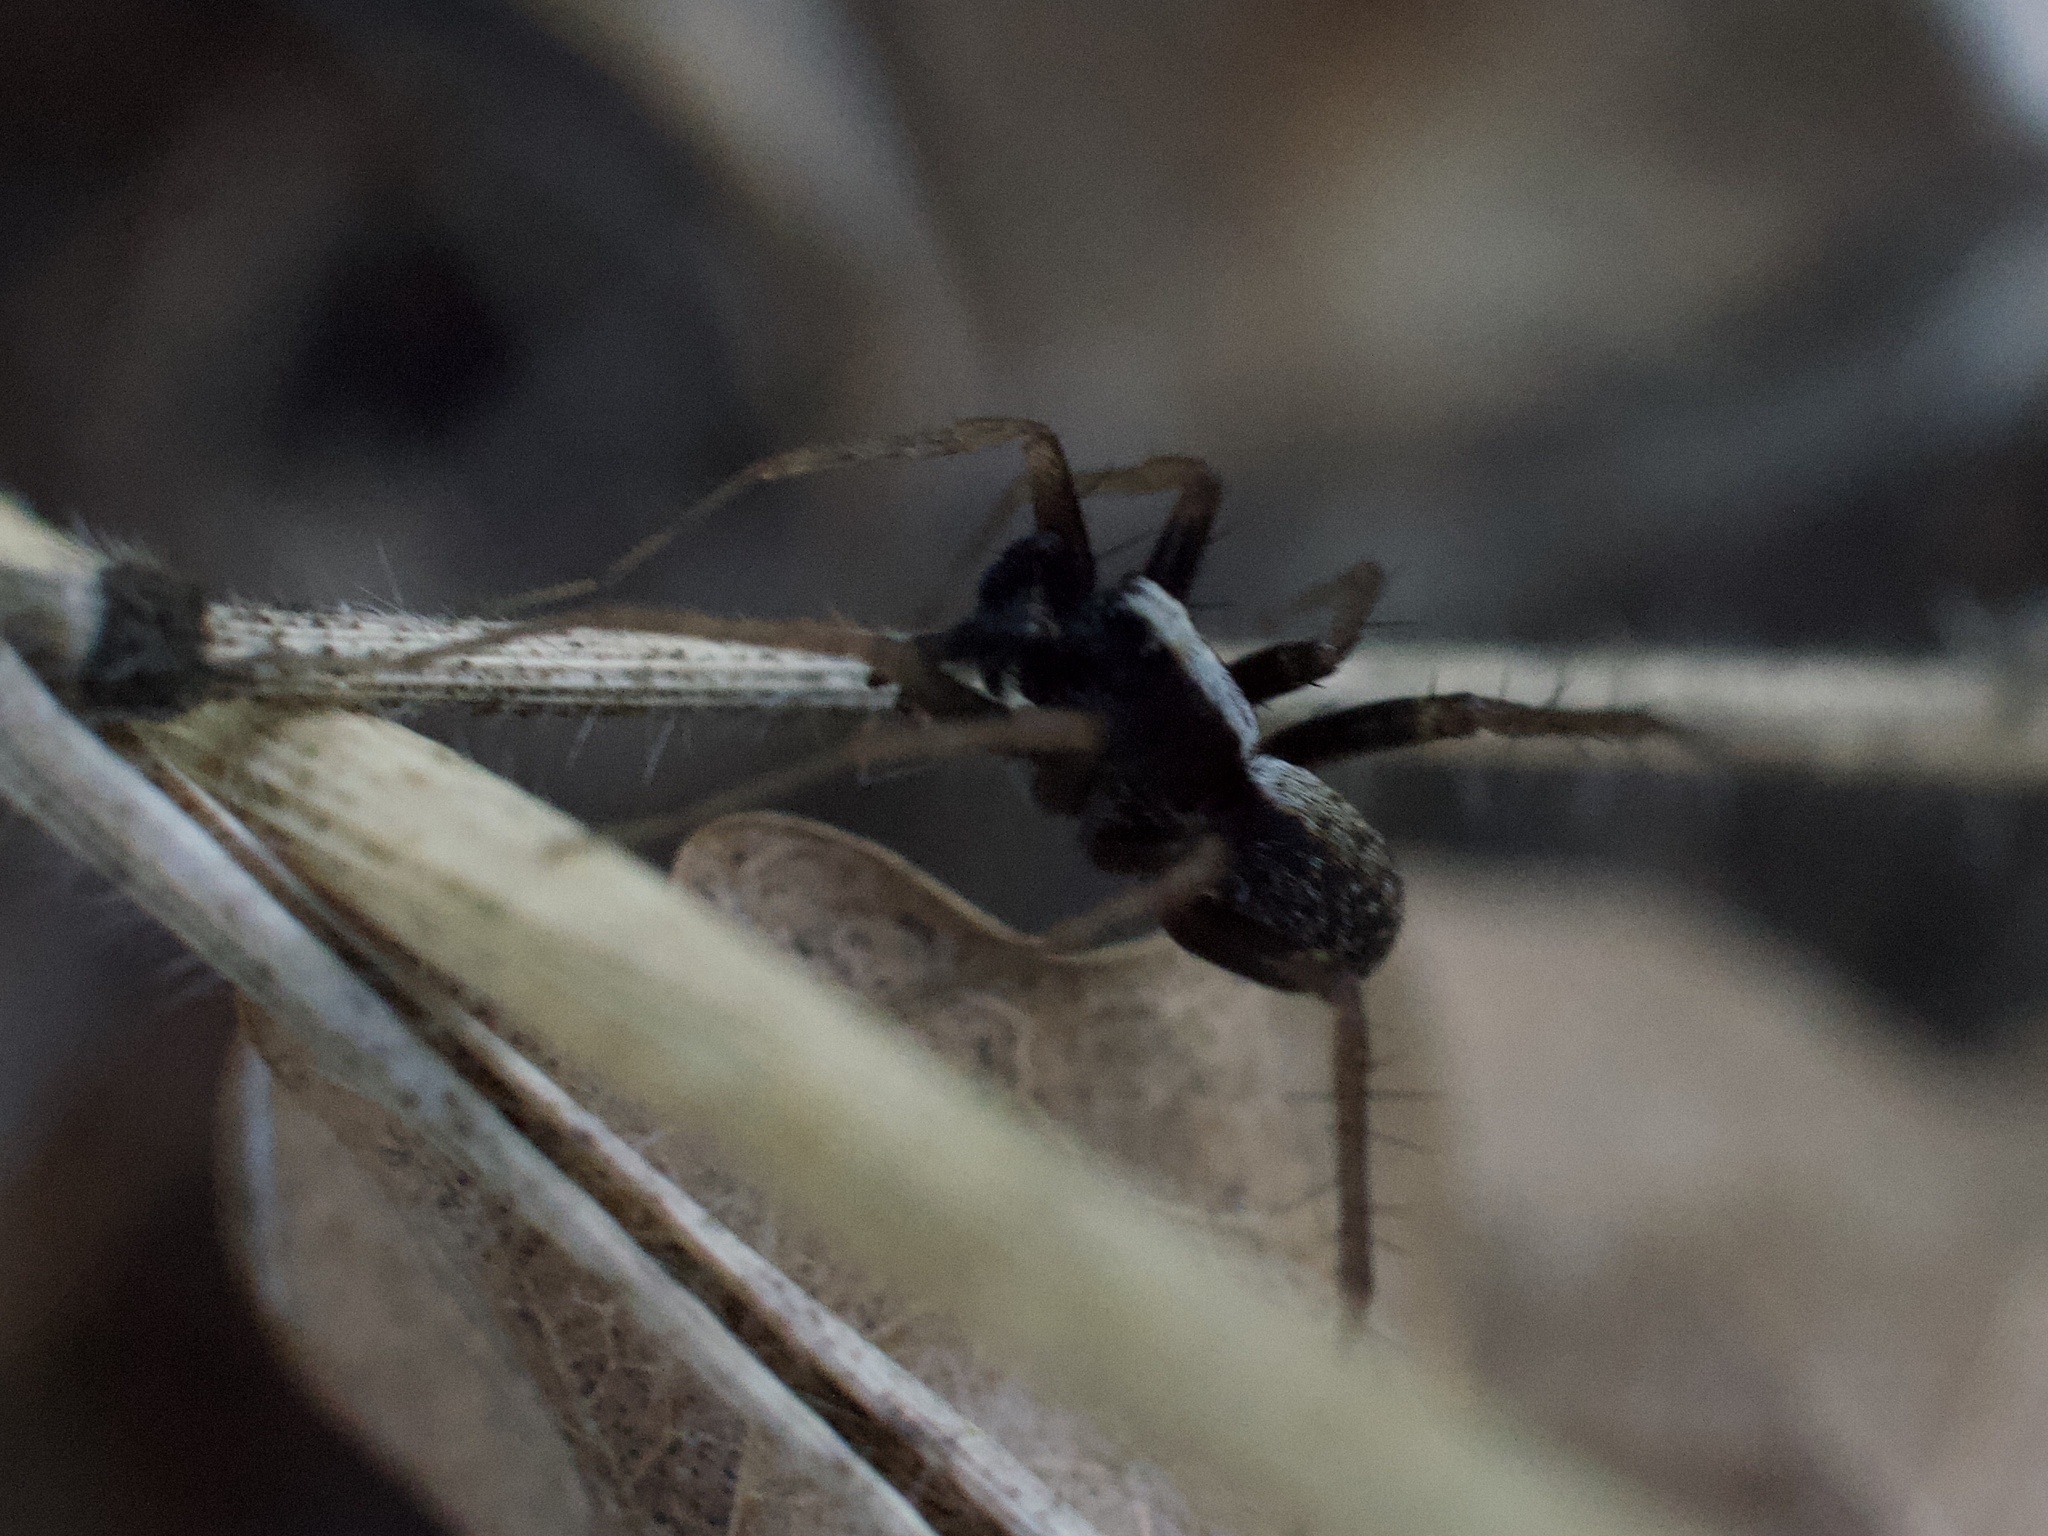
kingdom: Animalia
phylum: Arthropoda
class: Arachnida
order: Araneae
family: Lycosidae
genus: Pardosa
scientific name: Pardosa
